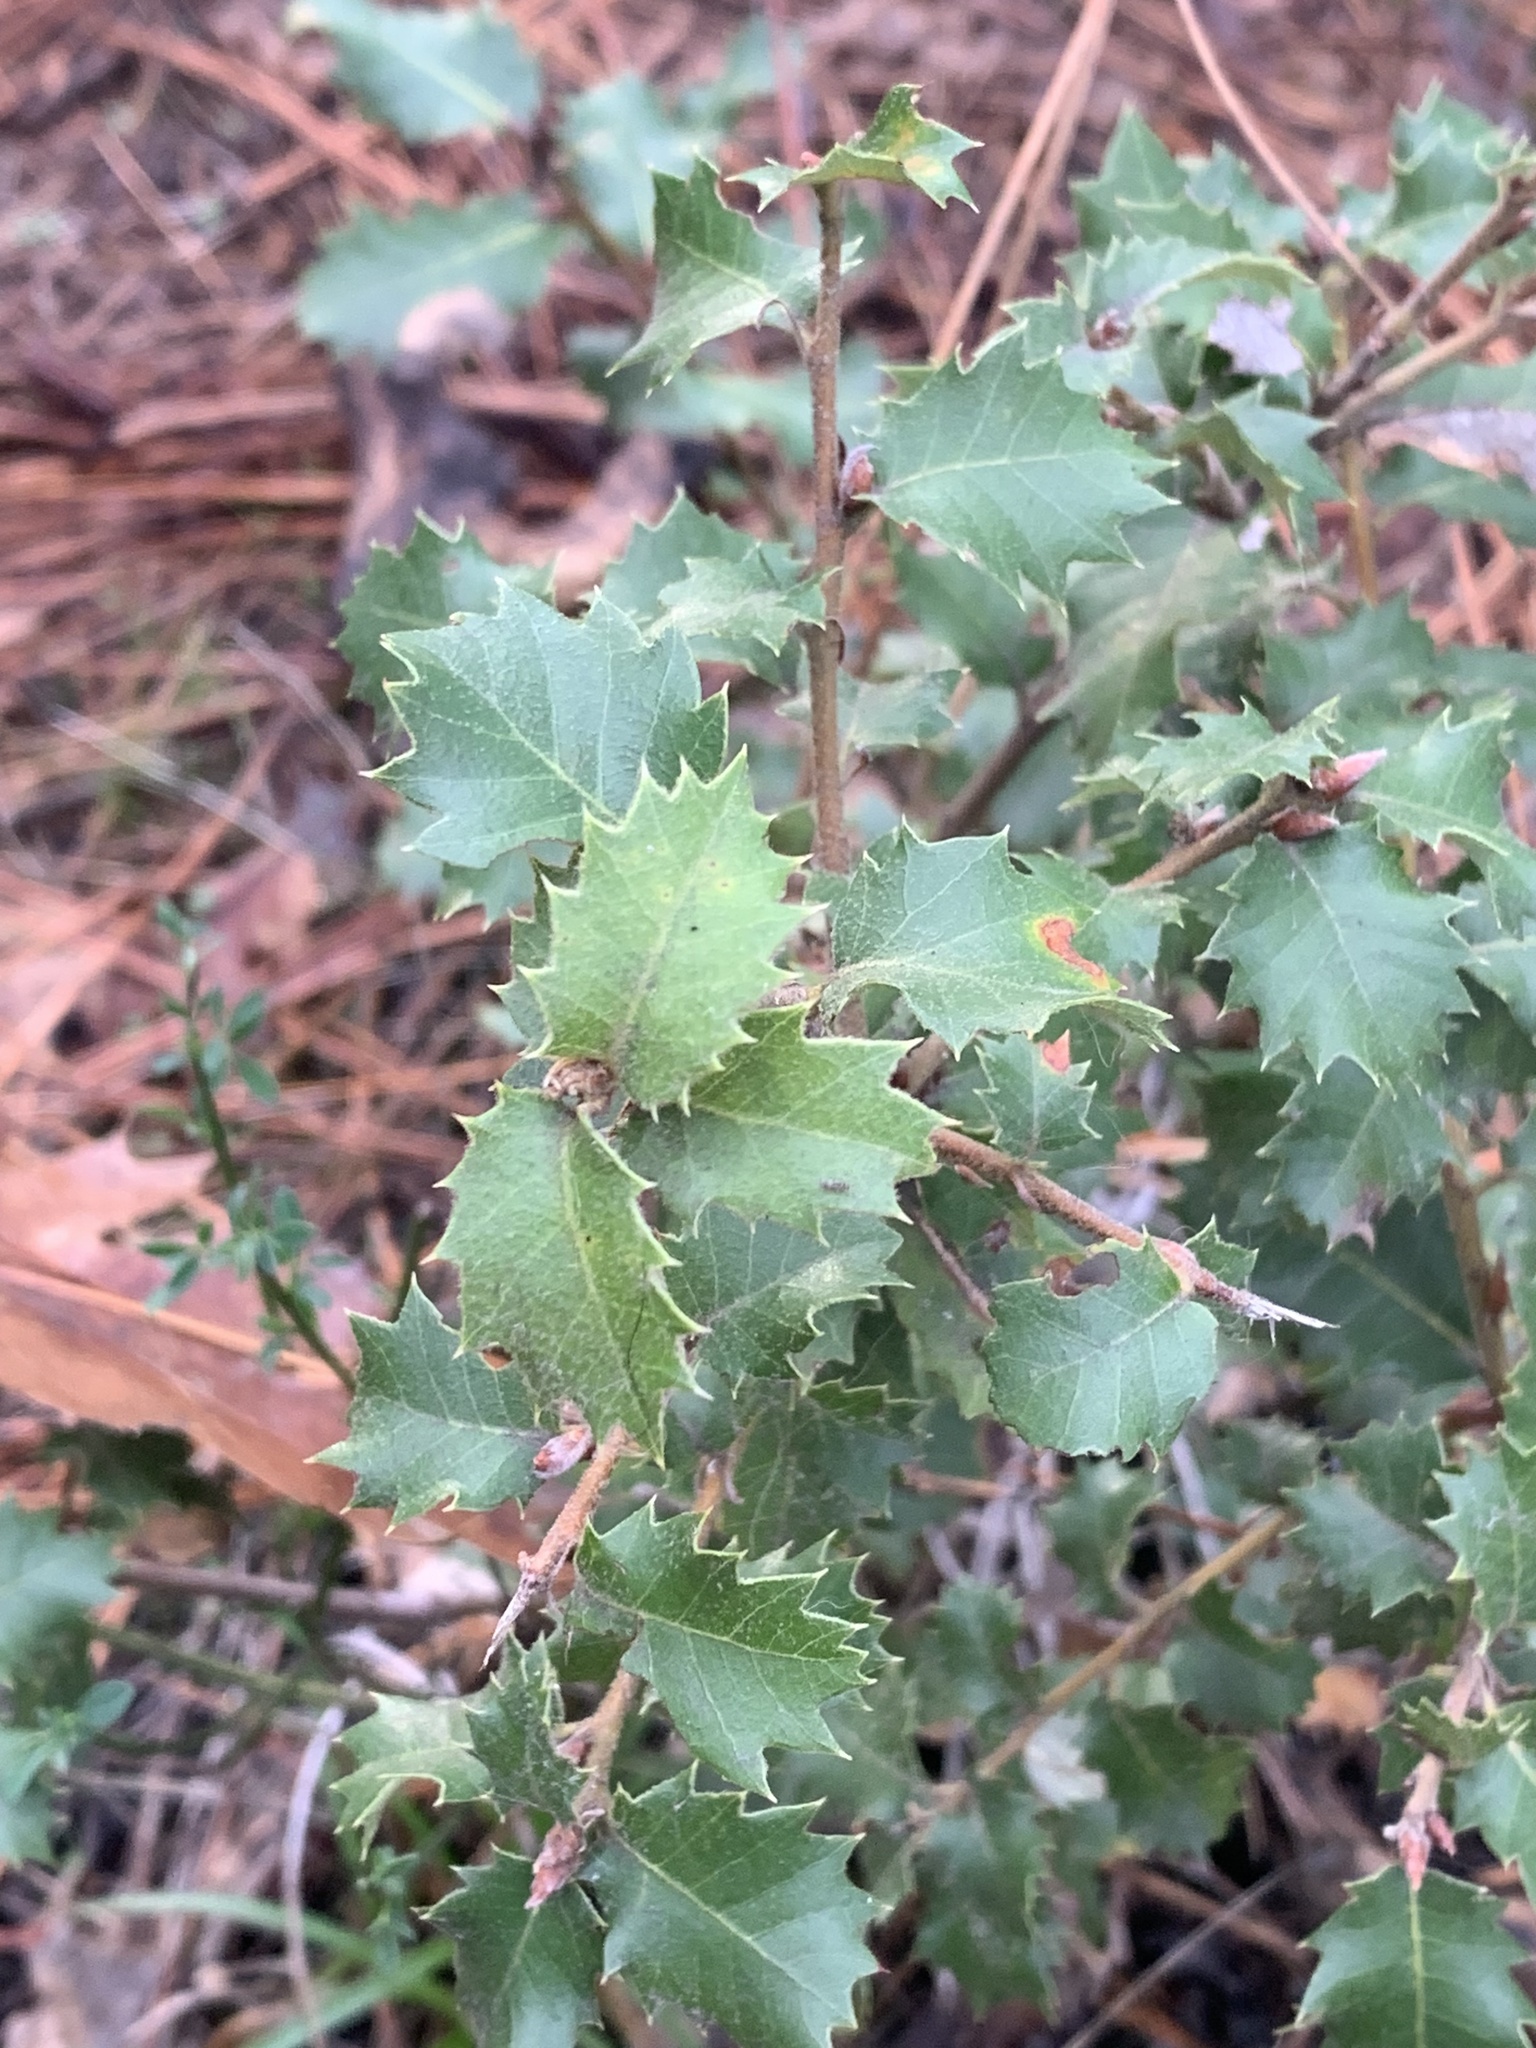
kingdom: Plantae
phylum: Tracheophyta
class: Magnoliopsida
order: Fagales
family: Fagaceae
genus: Quercus
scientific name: Quercus chrysolepis
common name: Canyon live oak
